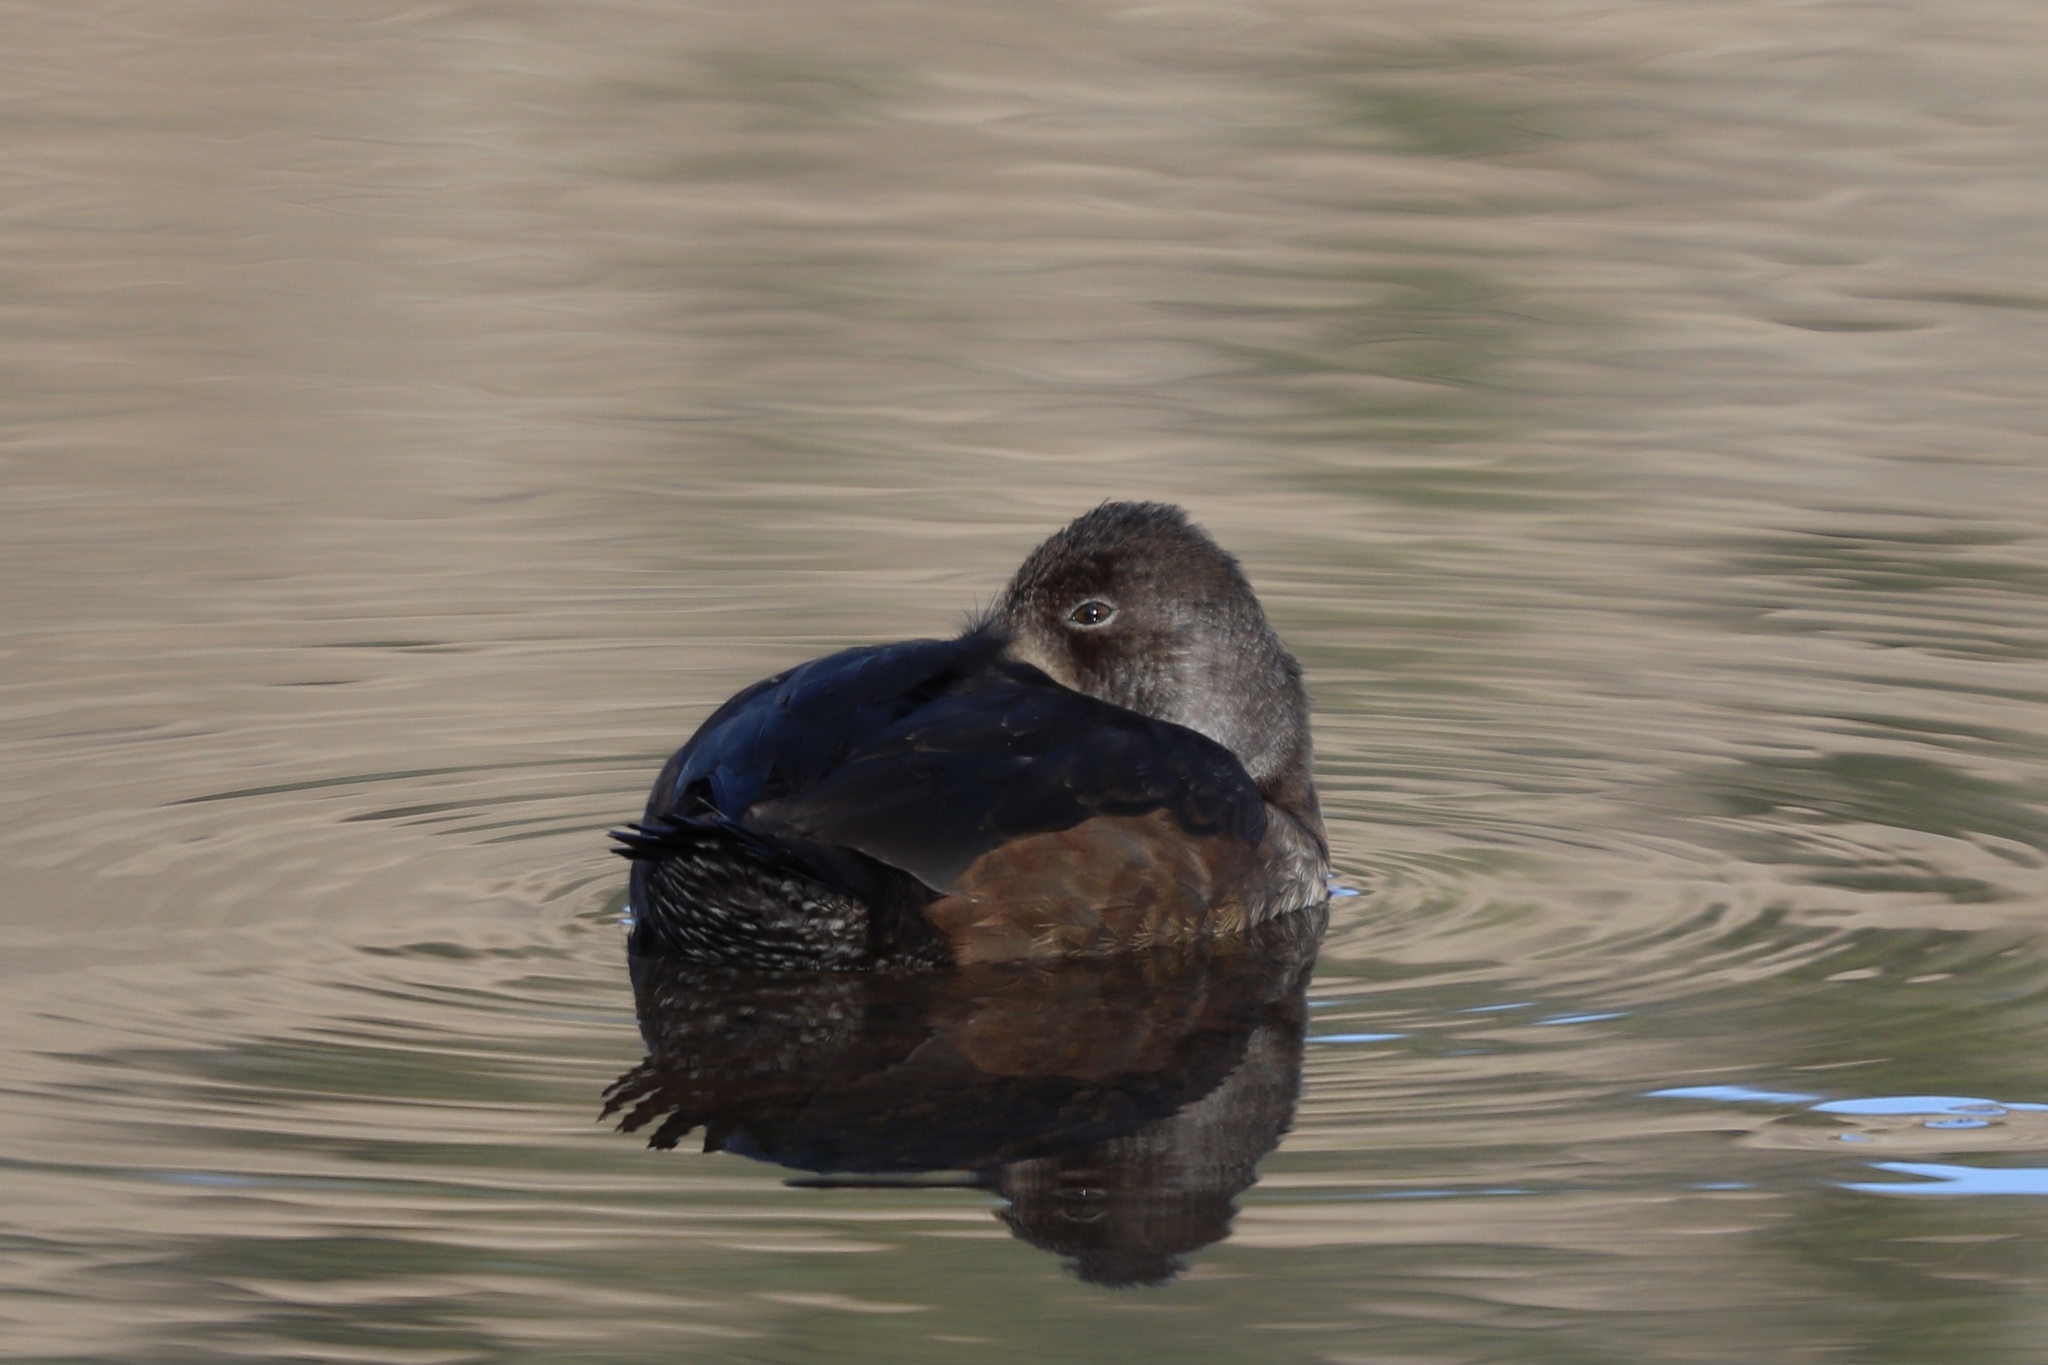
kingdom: Animalia
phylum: Chordata
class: Aves
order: Anseriformes
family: Anatidae
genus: Aythya
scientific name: Aythya collaris
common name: Ring-necked duck
